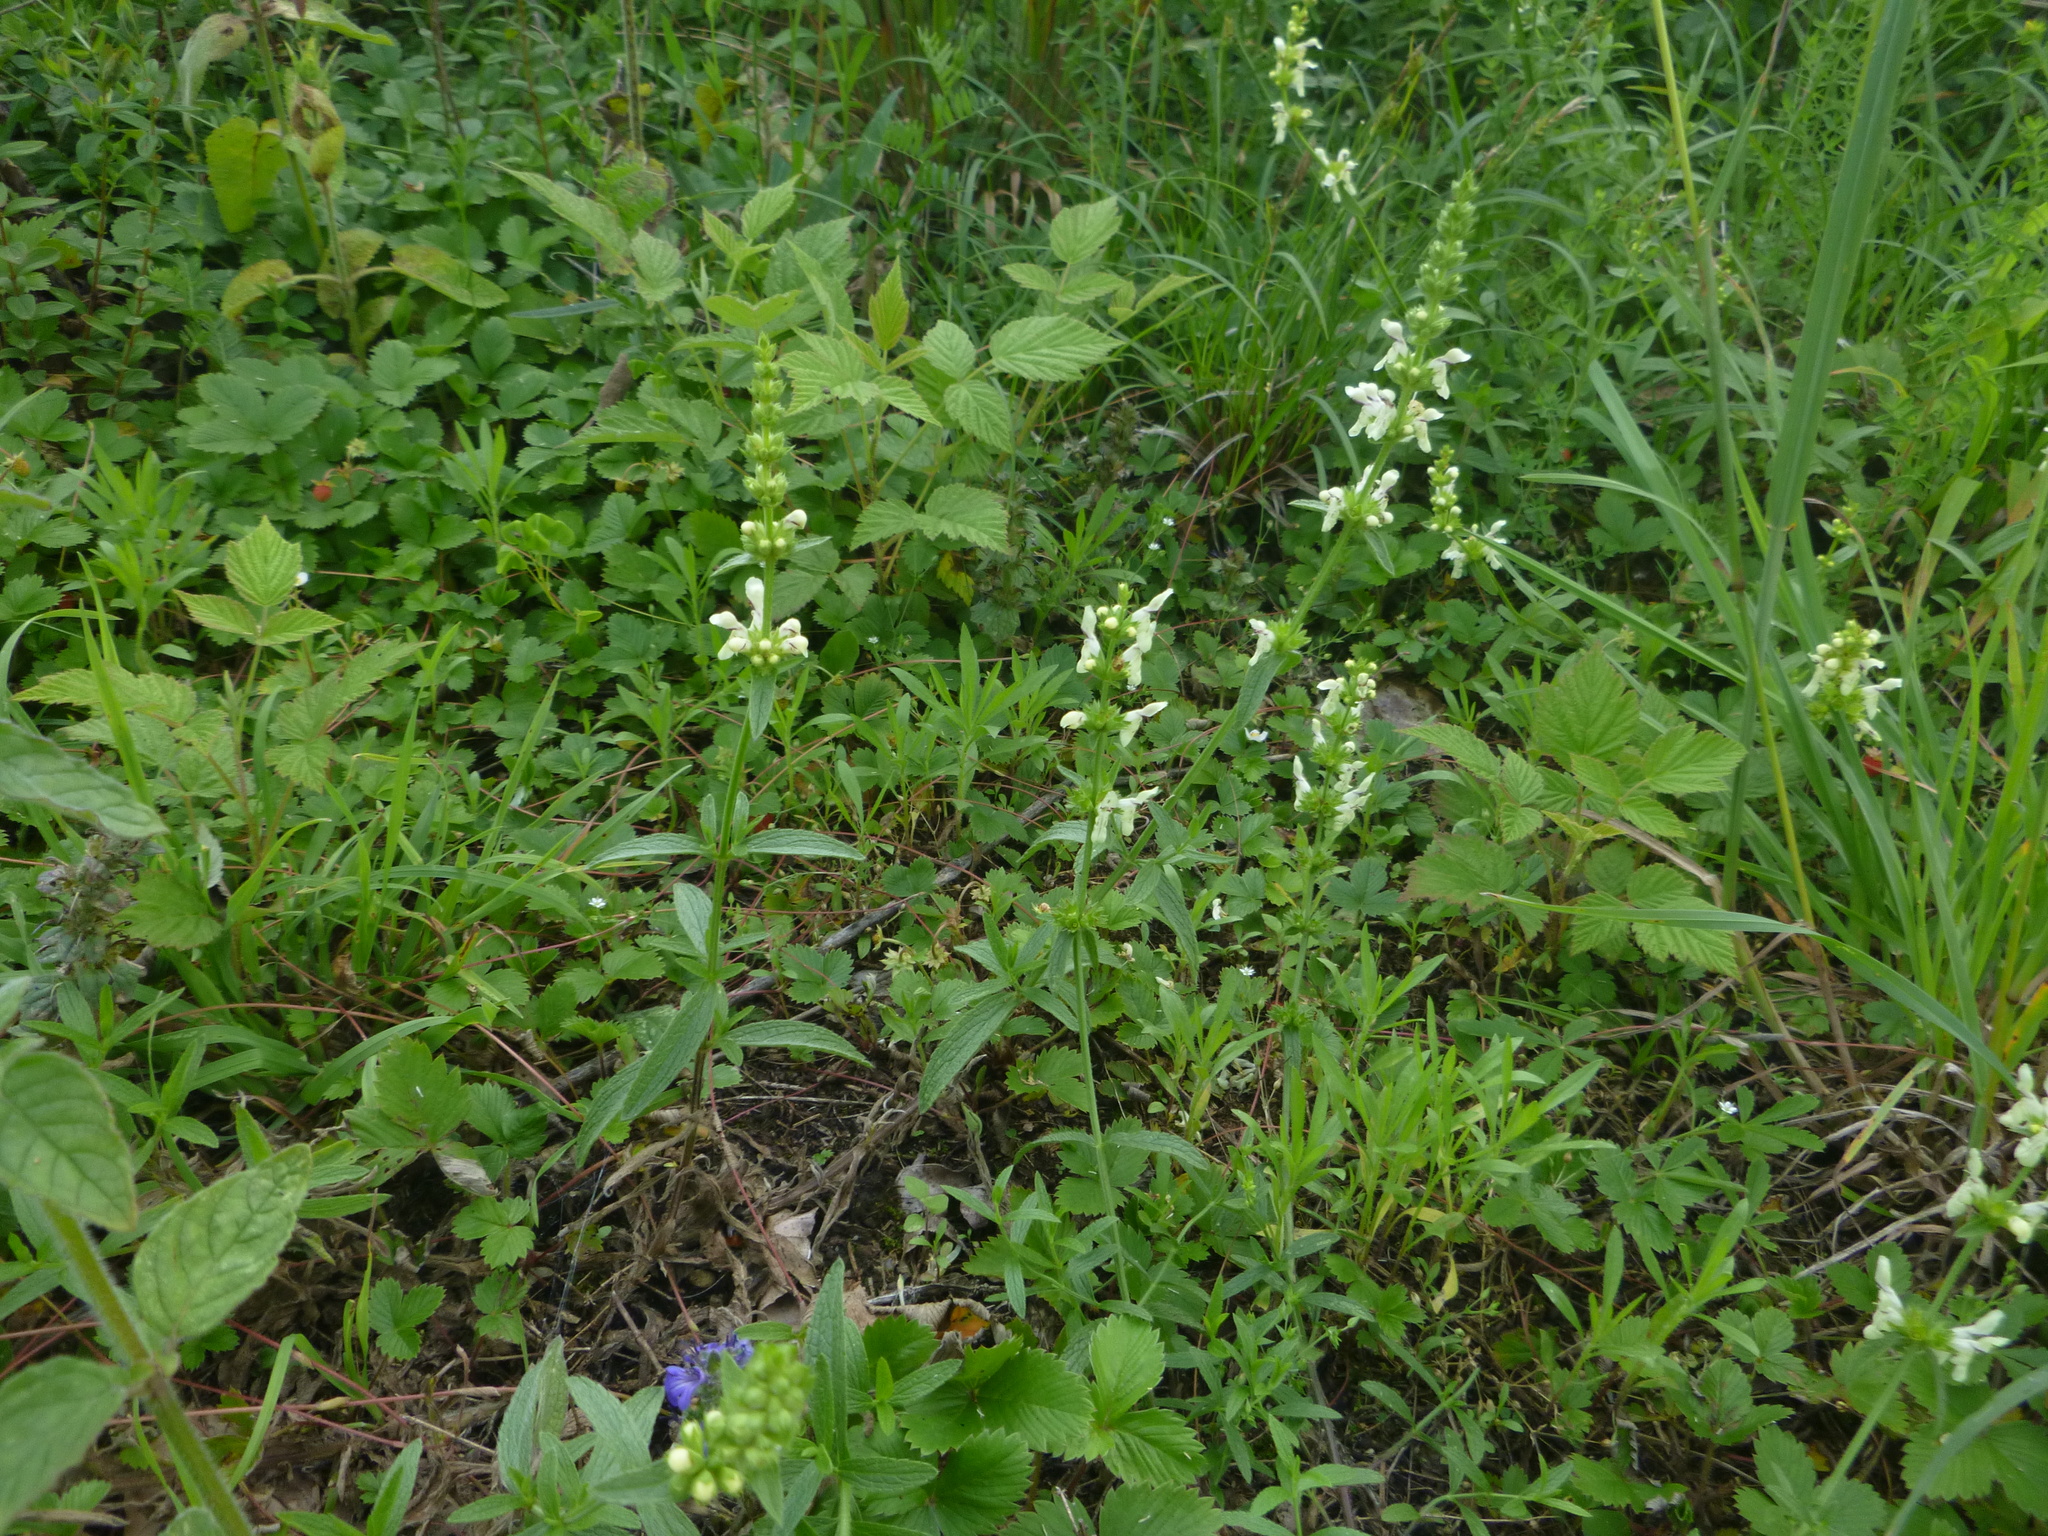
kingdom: Plantae
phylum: Tracheophyta
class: Magnoliopsida
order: Lamiales
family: Lamiaceae
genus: Stachys
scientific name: Stachys recta
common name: Perennial yellow-woundwort
